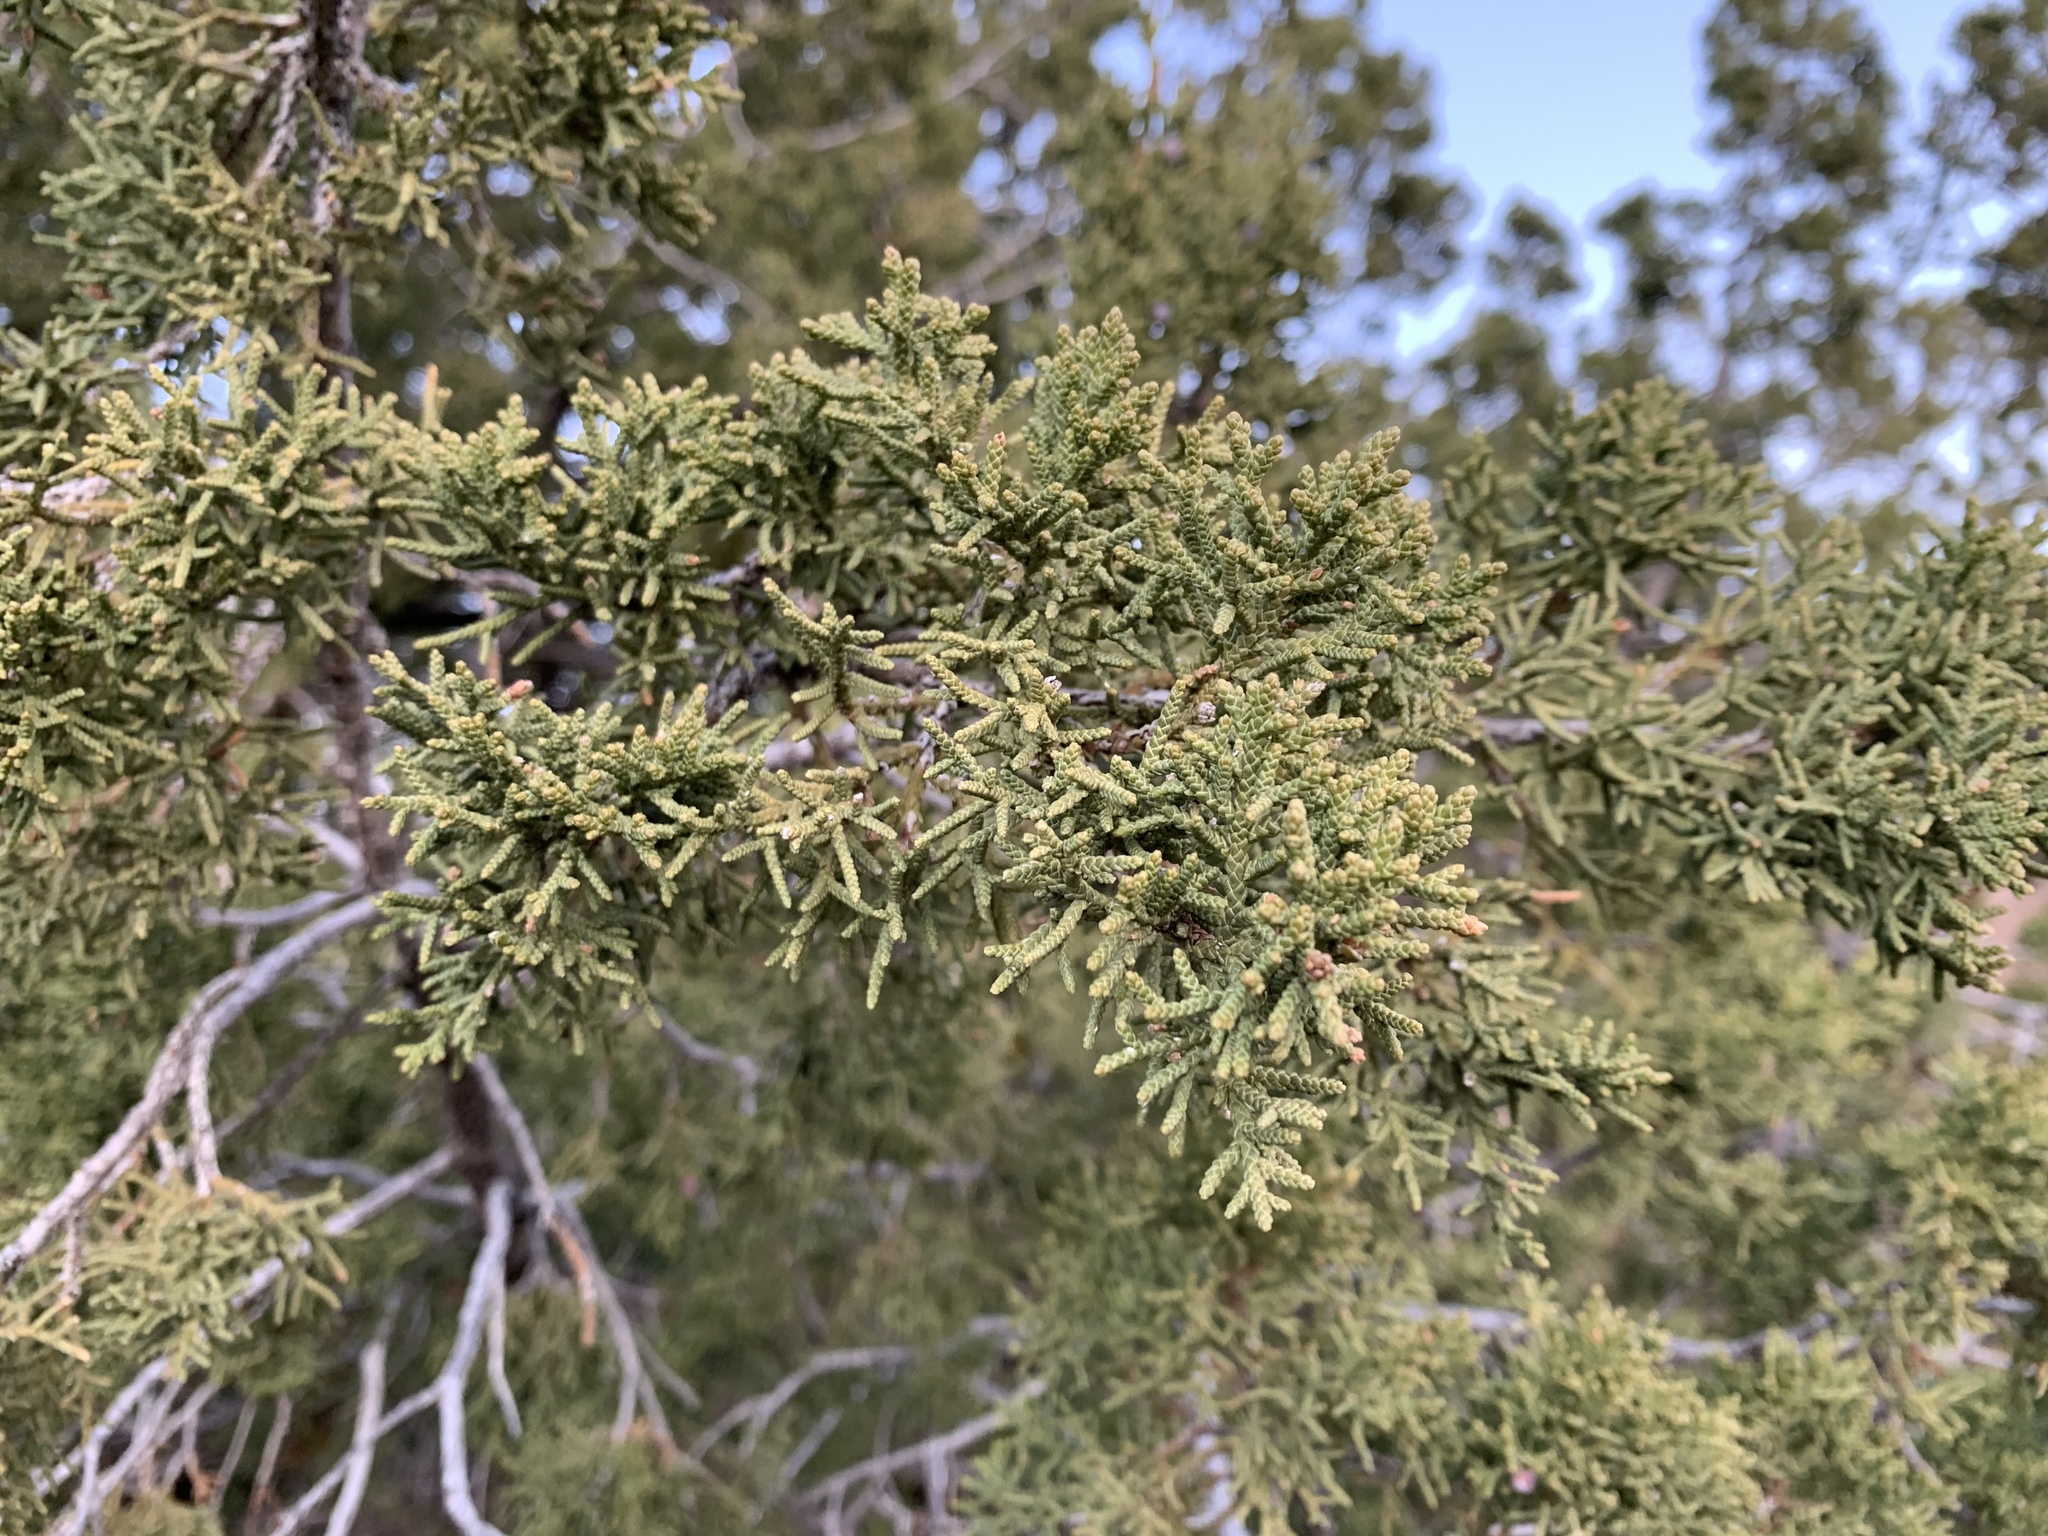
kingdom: Plantae
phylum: Tracheophyta
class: Pinopsida
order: Pinales
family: Cupressaceae
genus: Juniperus
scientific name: Juniperus monosperma
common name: One-seed juniper
